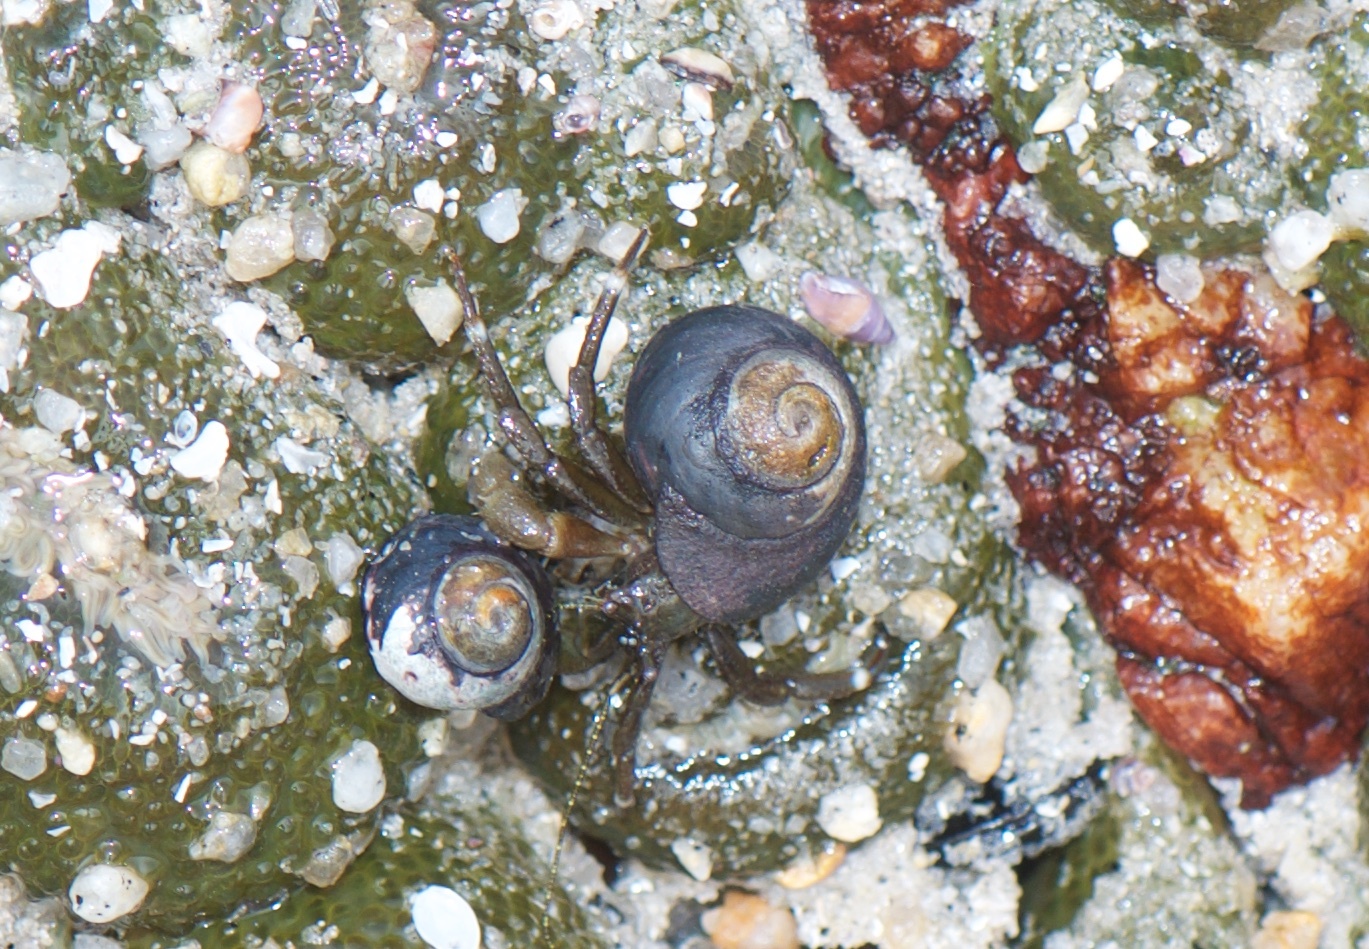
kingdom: Animalia
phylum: Mollusca
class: Gastropoda
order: Trochida
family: Tegulidae
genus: Tegula
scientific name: Tegula funebralis
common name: Black tegula
